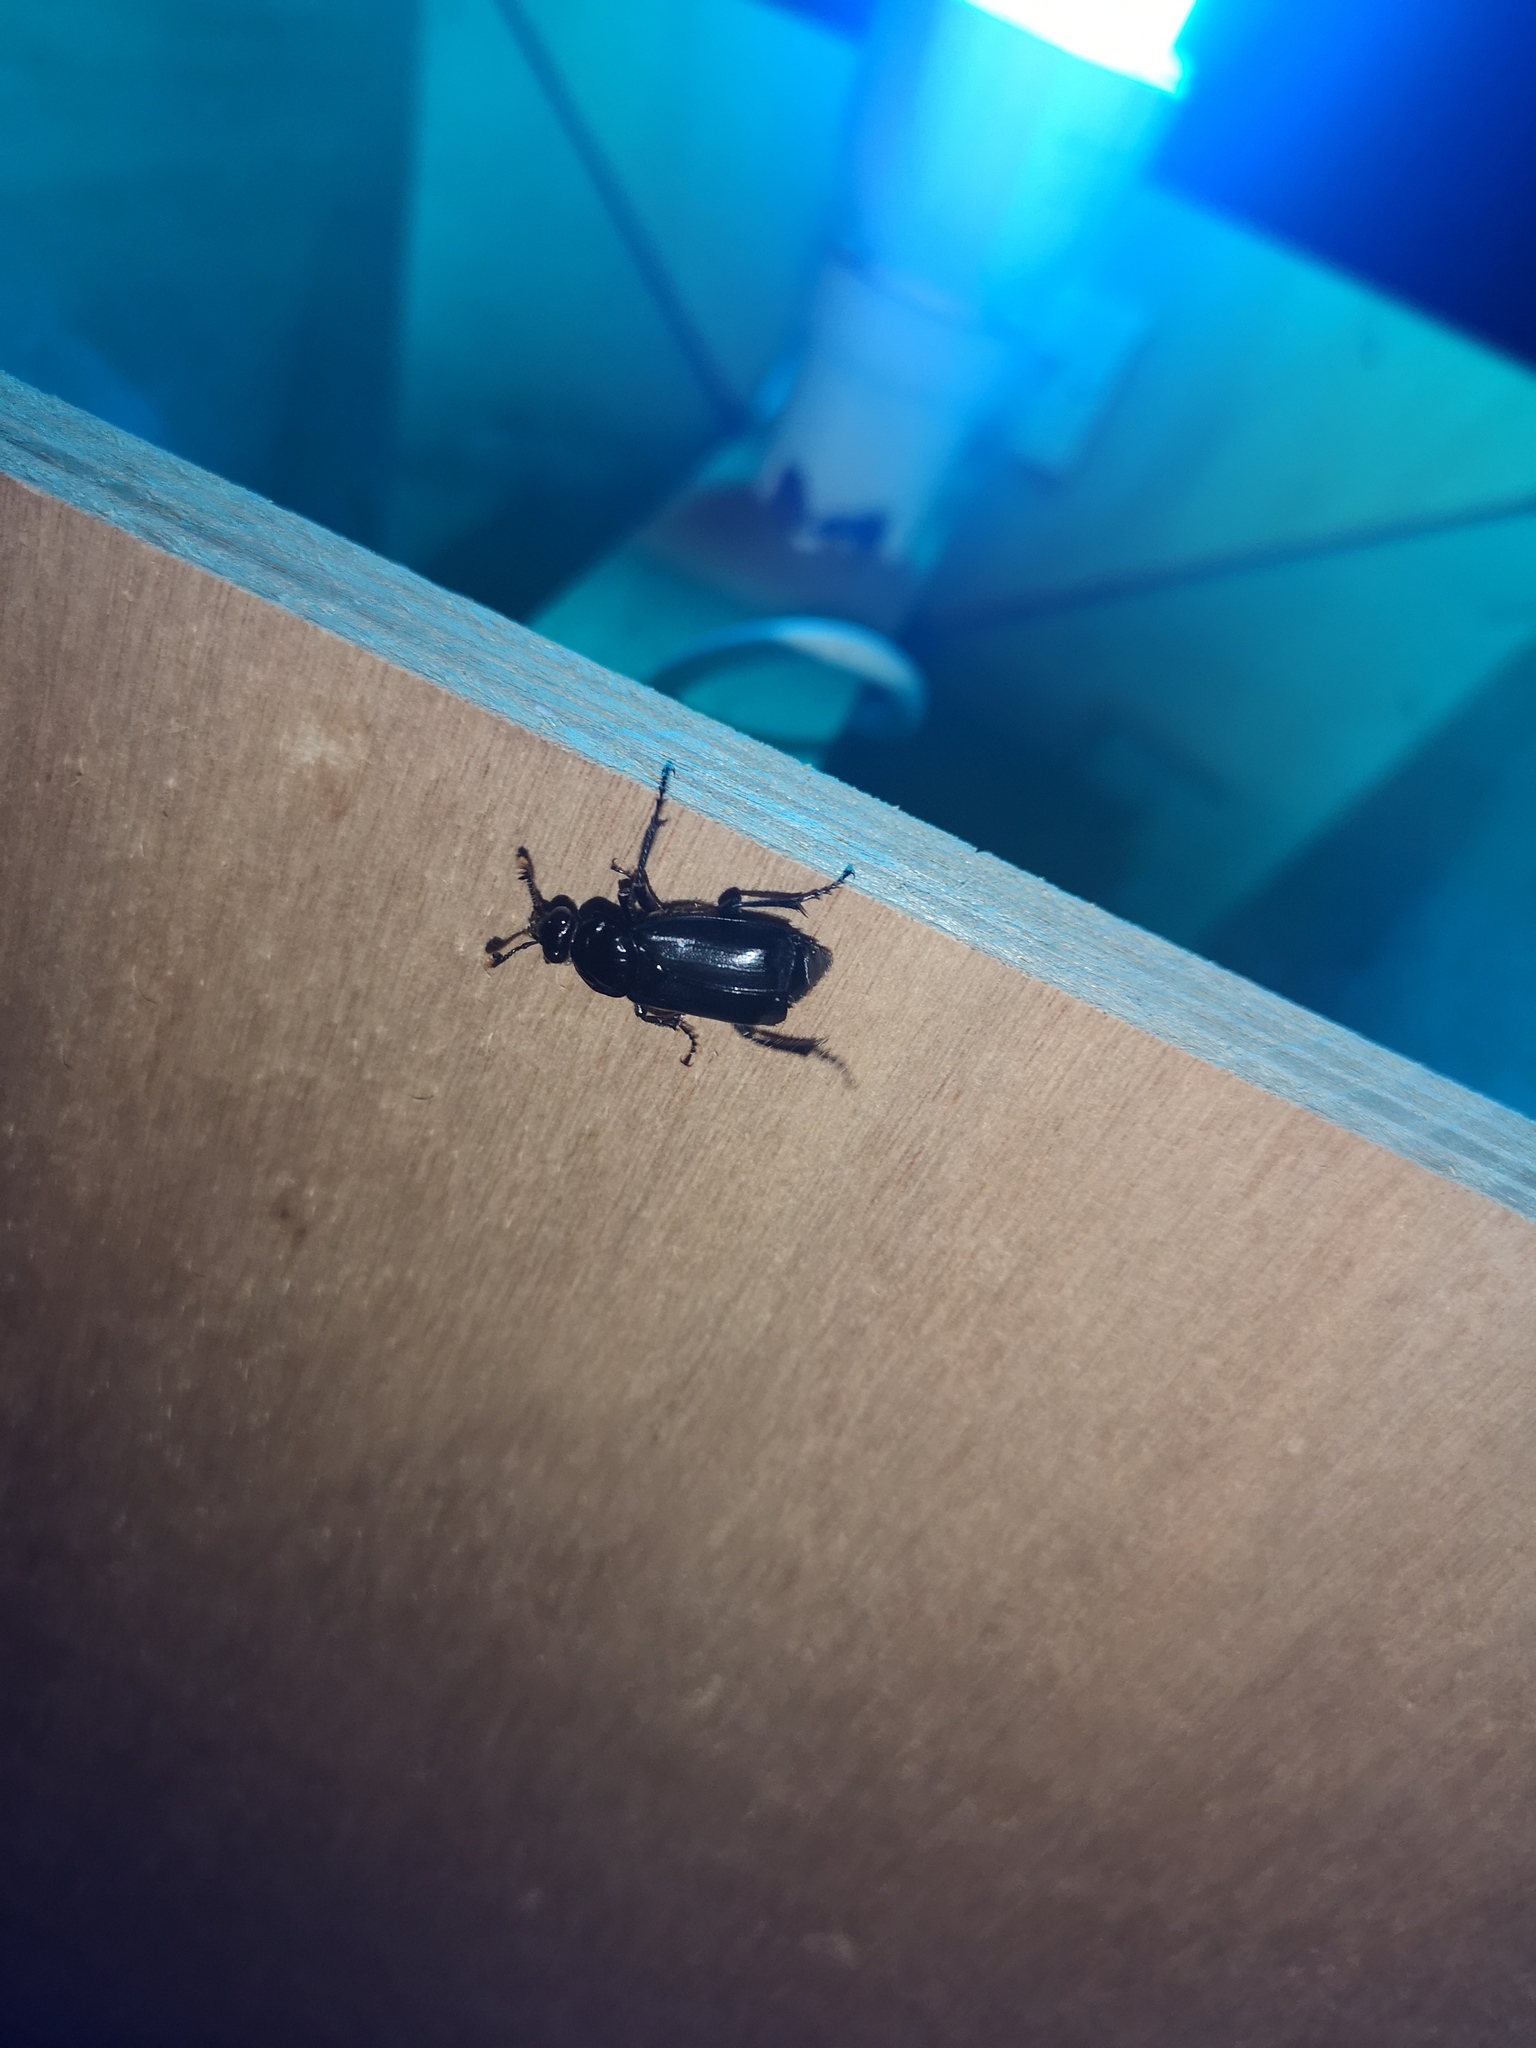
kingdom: Animalia
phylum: Arthropoda
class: Insecta
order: Coleoptera
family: Staphylinidae
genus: Nicrophorus
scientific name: Nicrophorus humator
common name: Black sexton beetle
